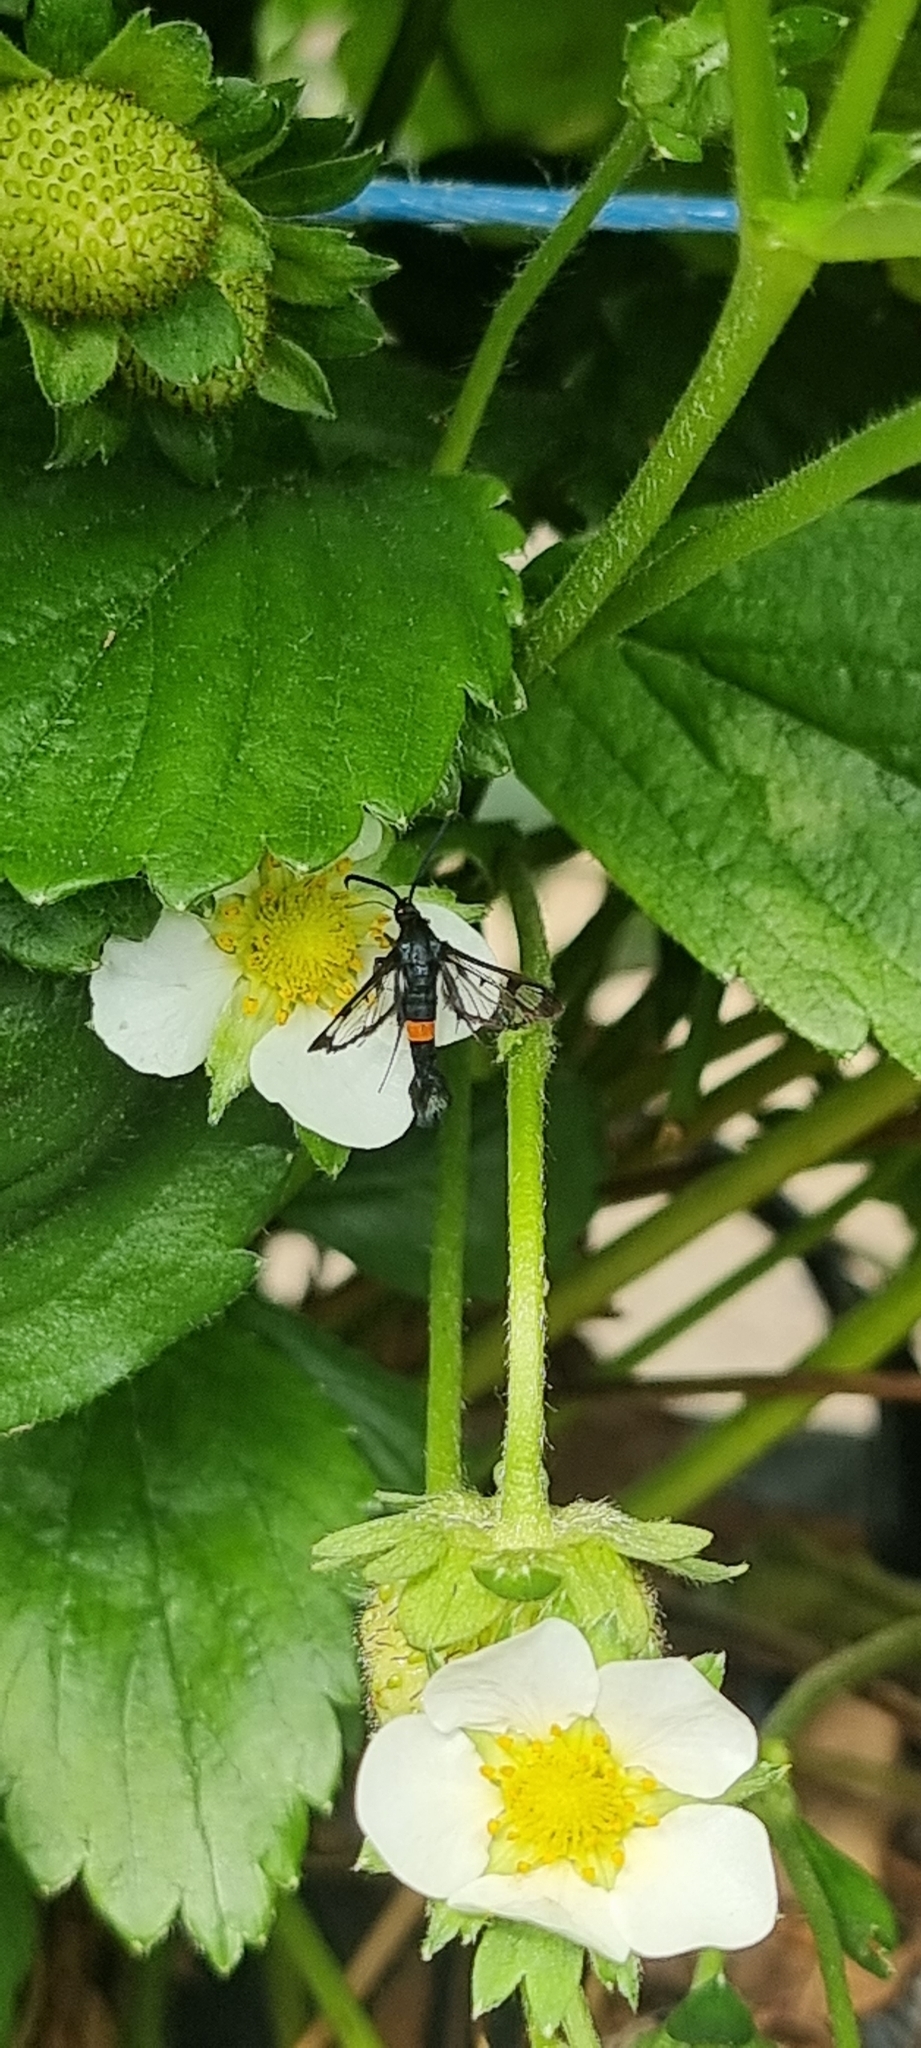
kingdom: Animalia
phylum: Arthropoda
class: Insecta
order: Lepidoptera
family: Sesiidae
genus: Synanthedon
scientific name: Synanthedon myopaeformis
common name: Red-belted clearwing
